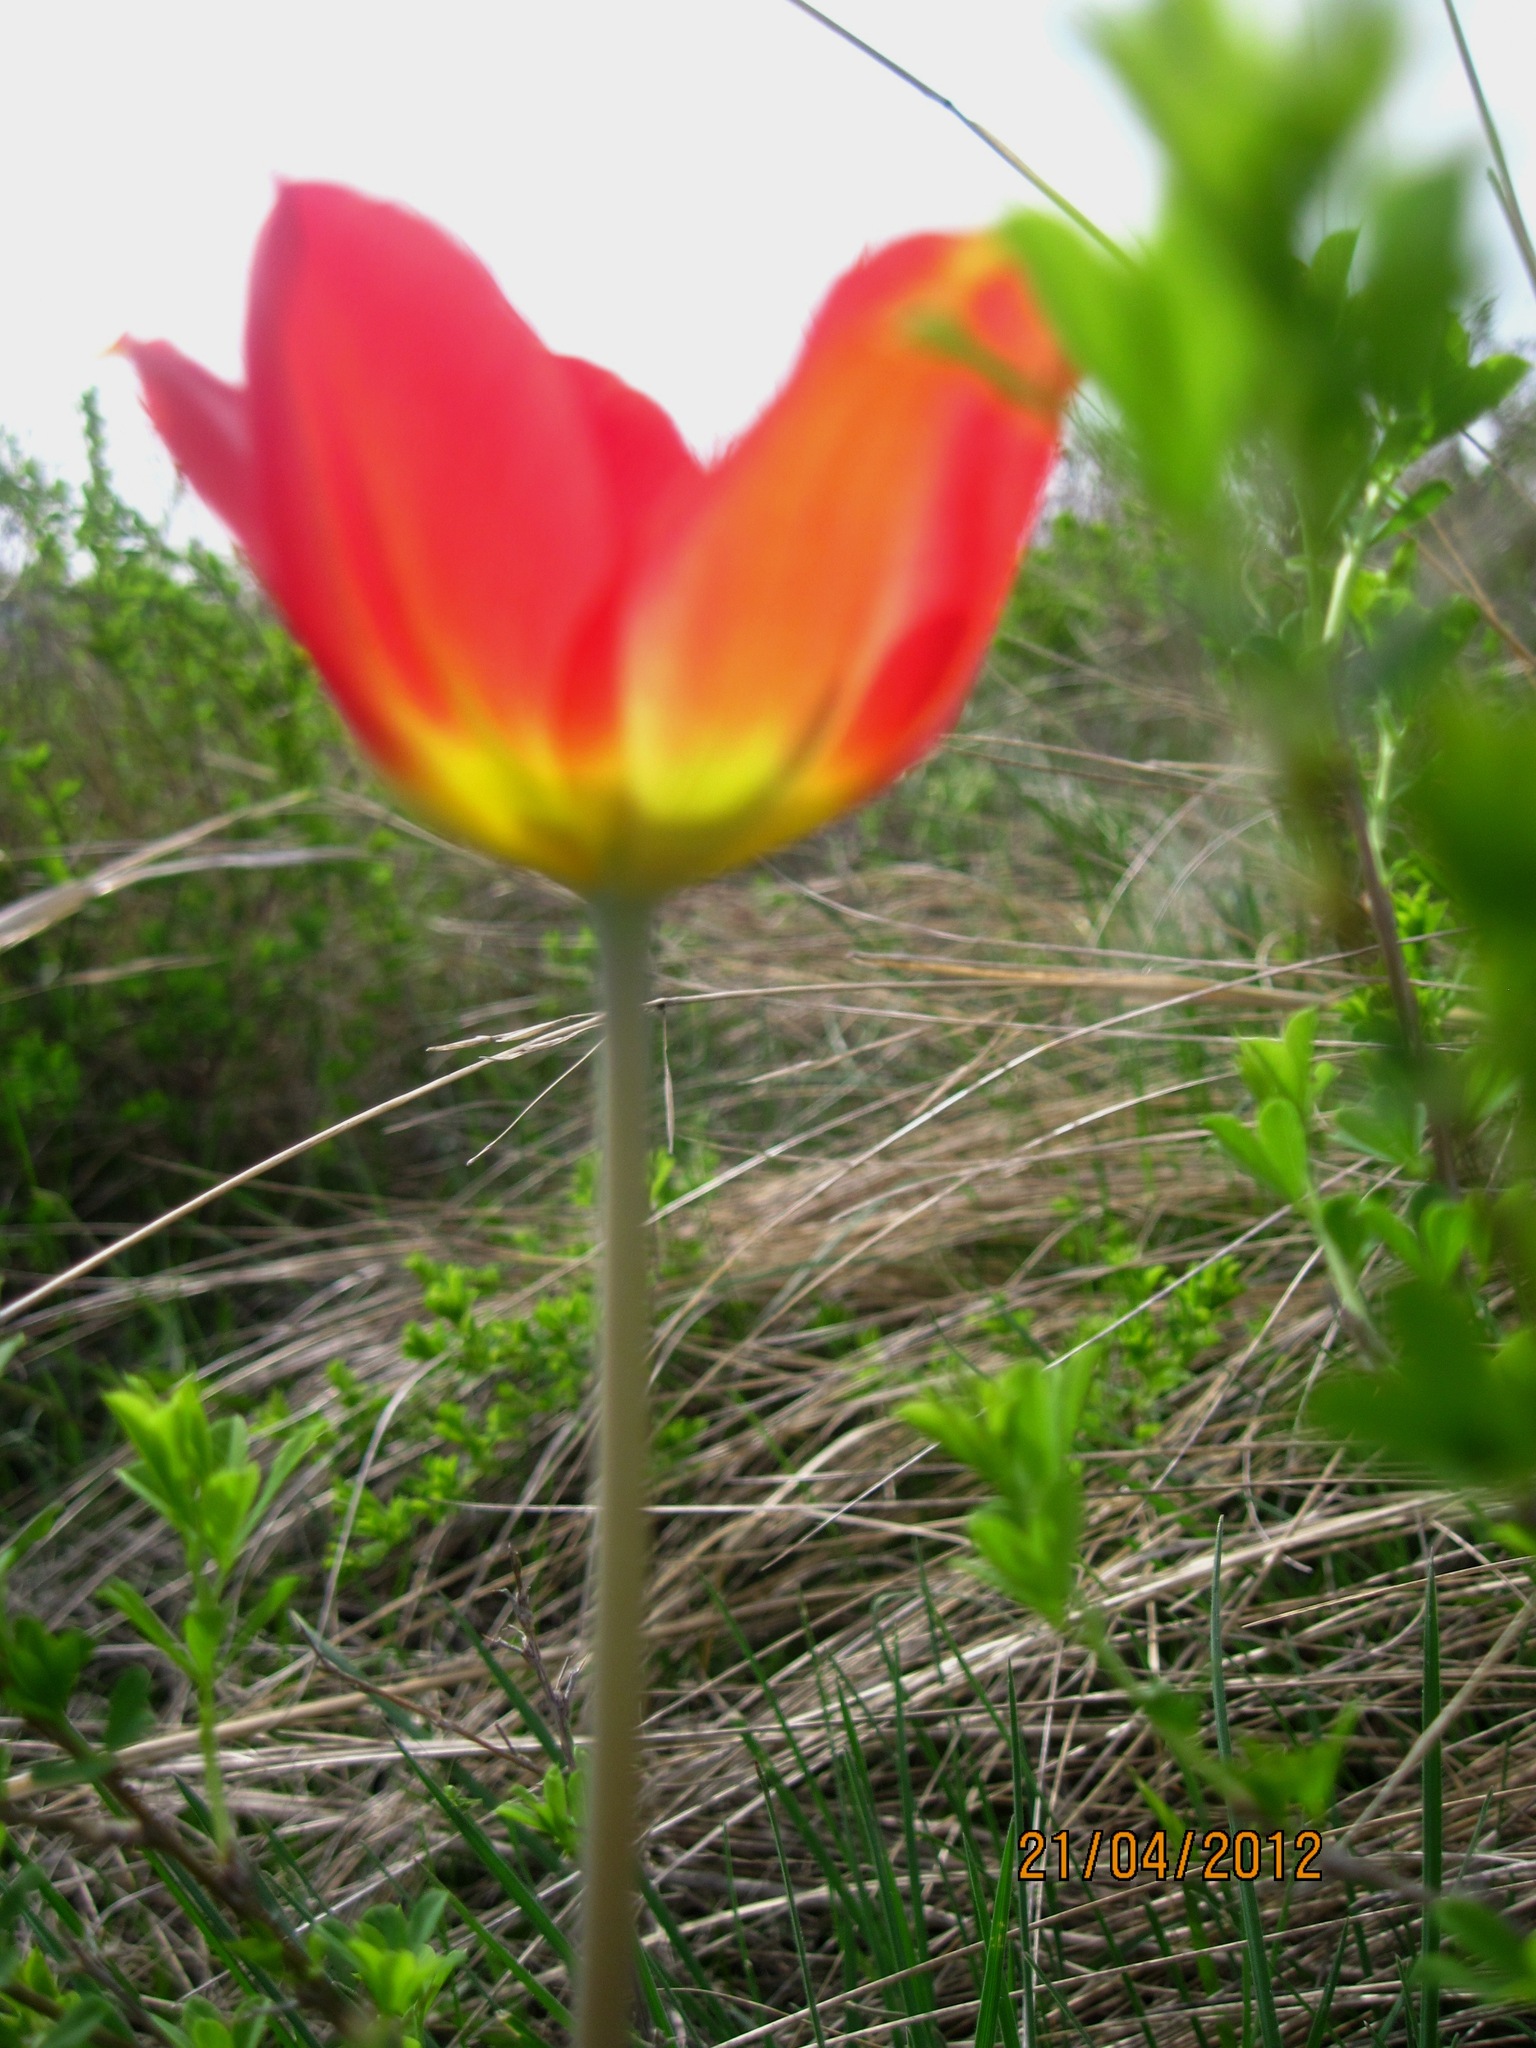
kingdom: Plantae
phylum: Tracheophyta
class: Liliopsida
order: Liliales
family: Liliaceae
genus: Tulipa
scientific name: Tulipa suaveolens
